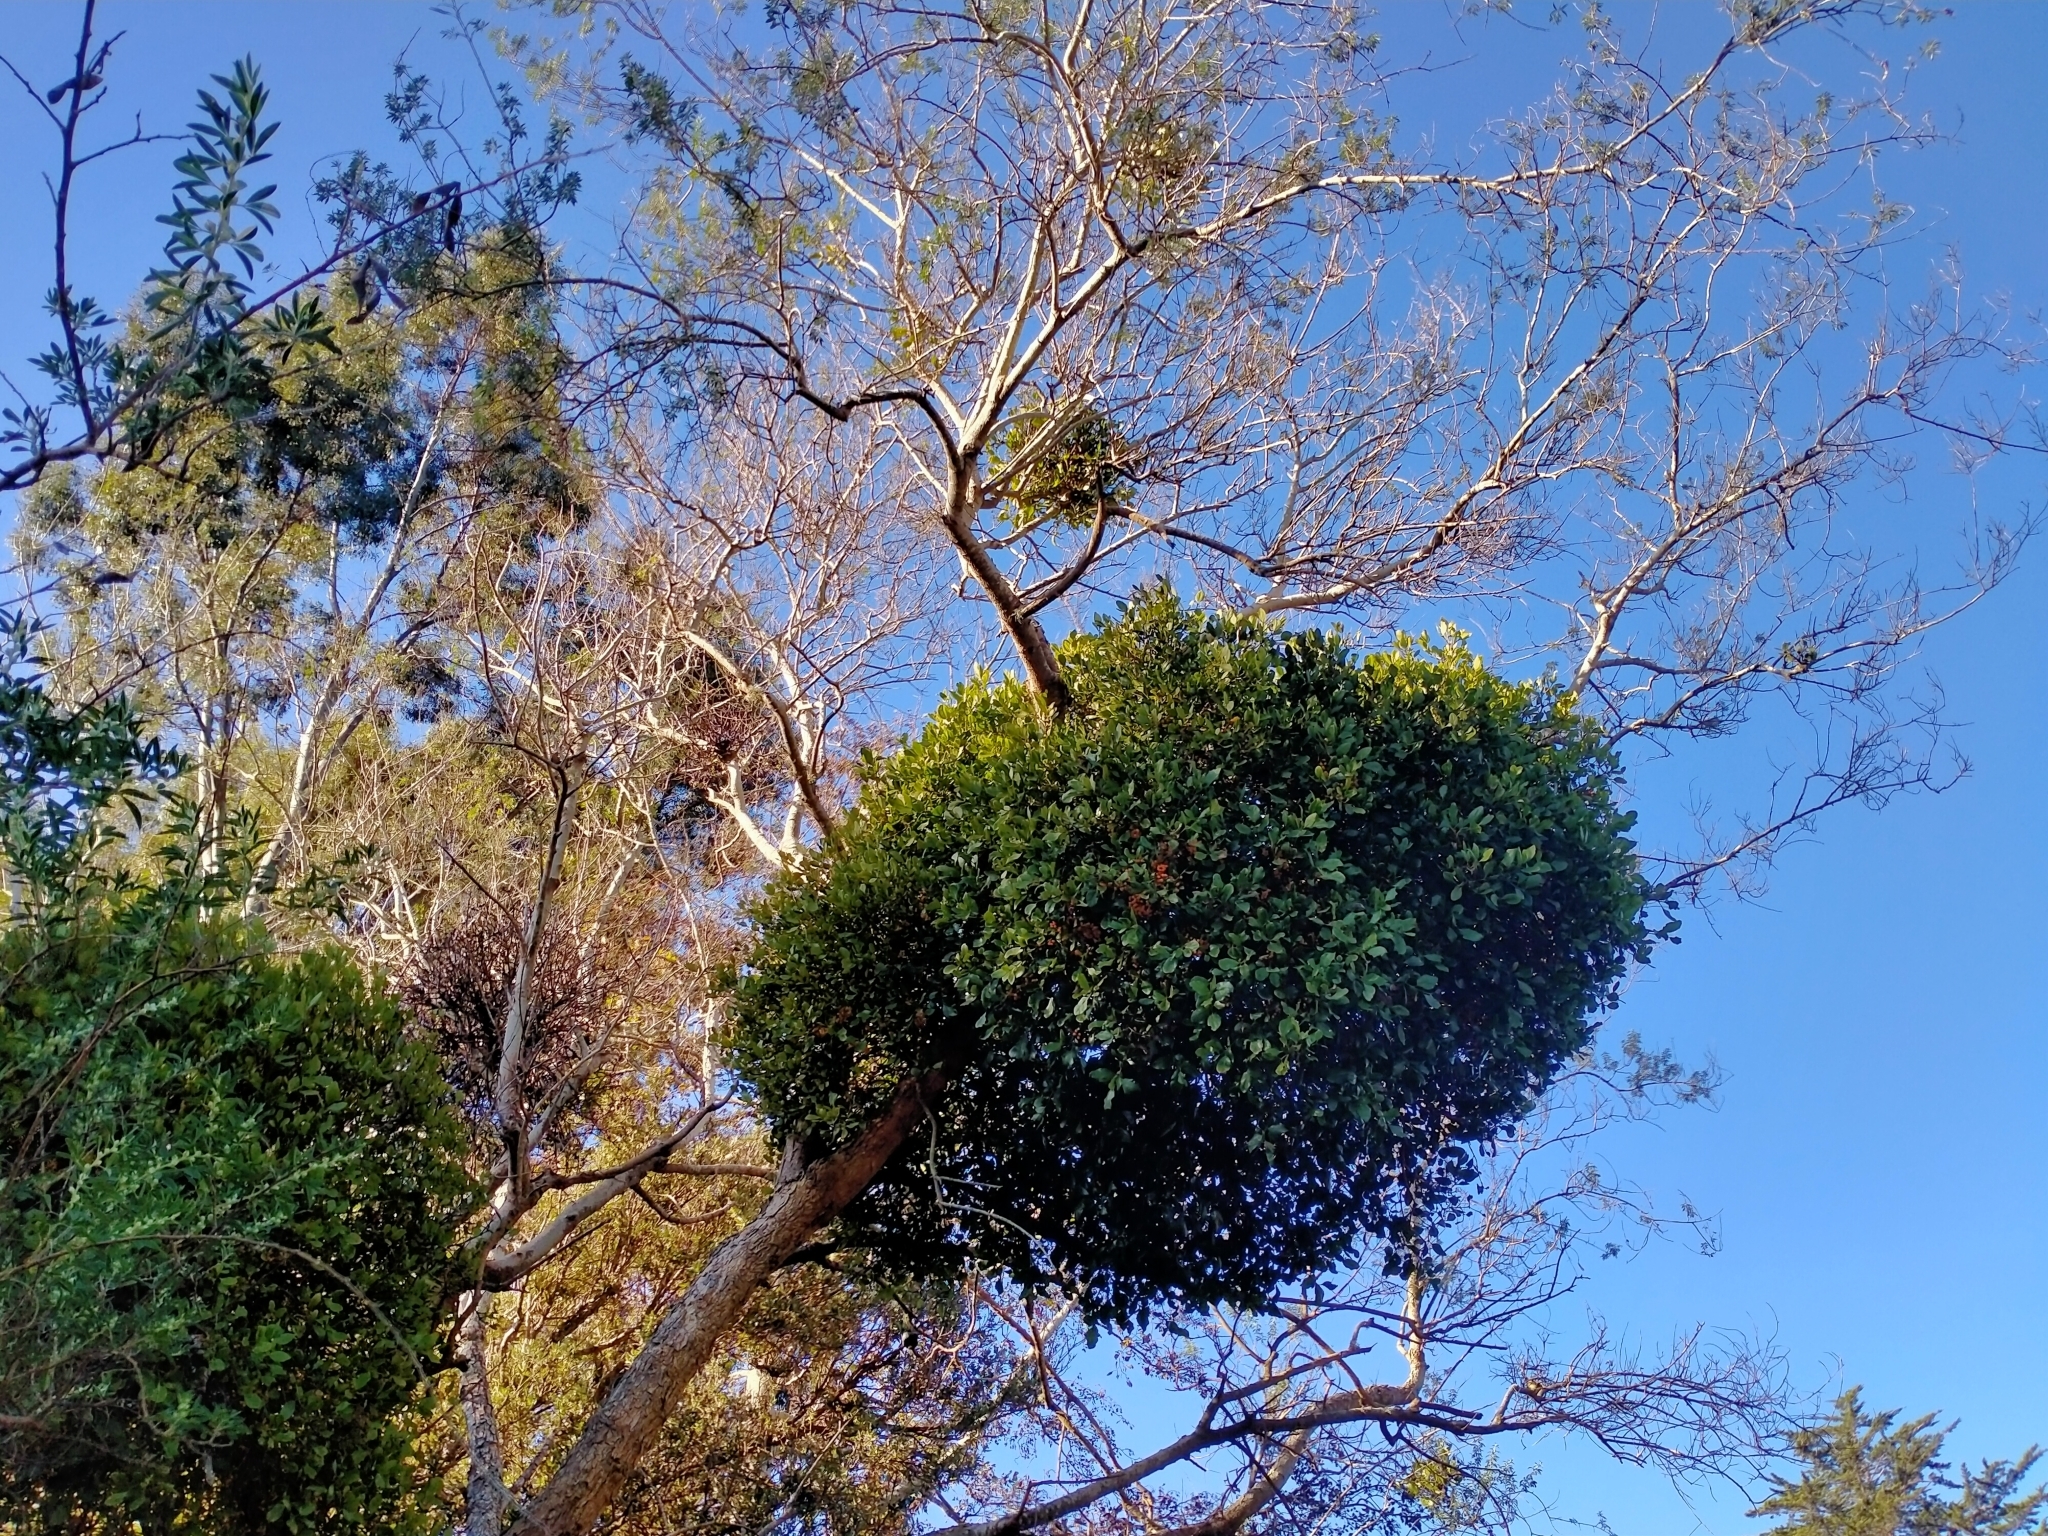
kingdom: Plantae
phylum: Tracheophyta
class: Magnoliopsida
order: Santalales
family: Loranthaceae
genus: Ileostylus
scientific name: Ileostylus micranthus
